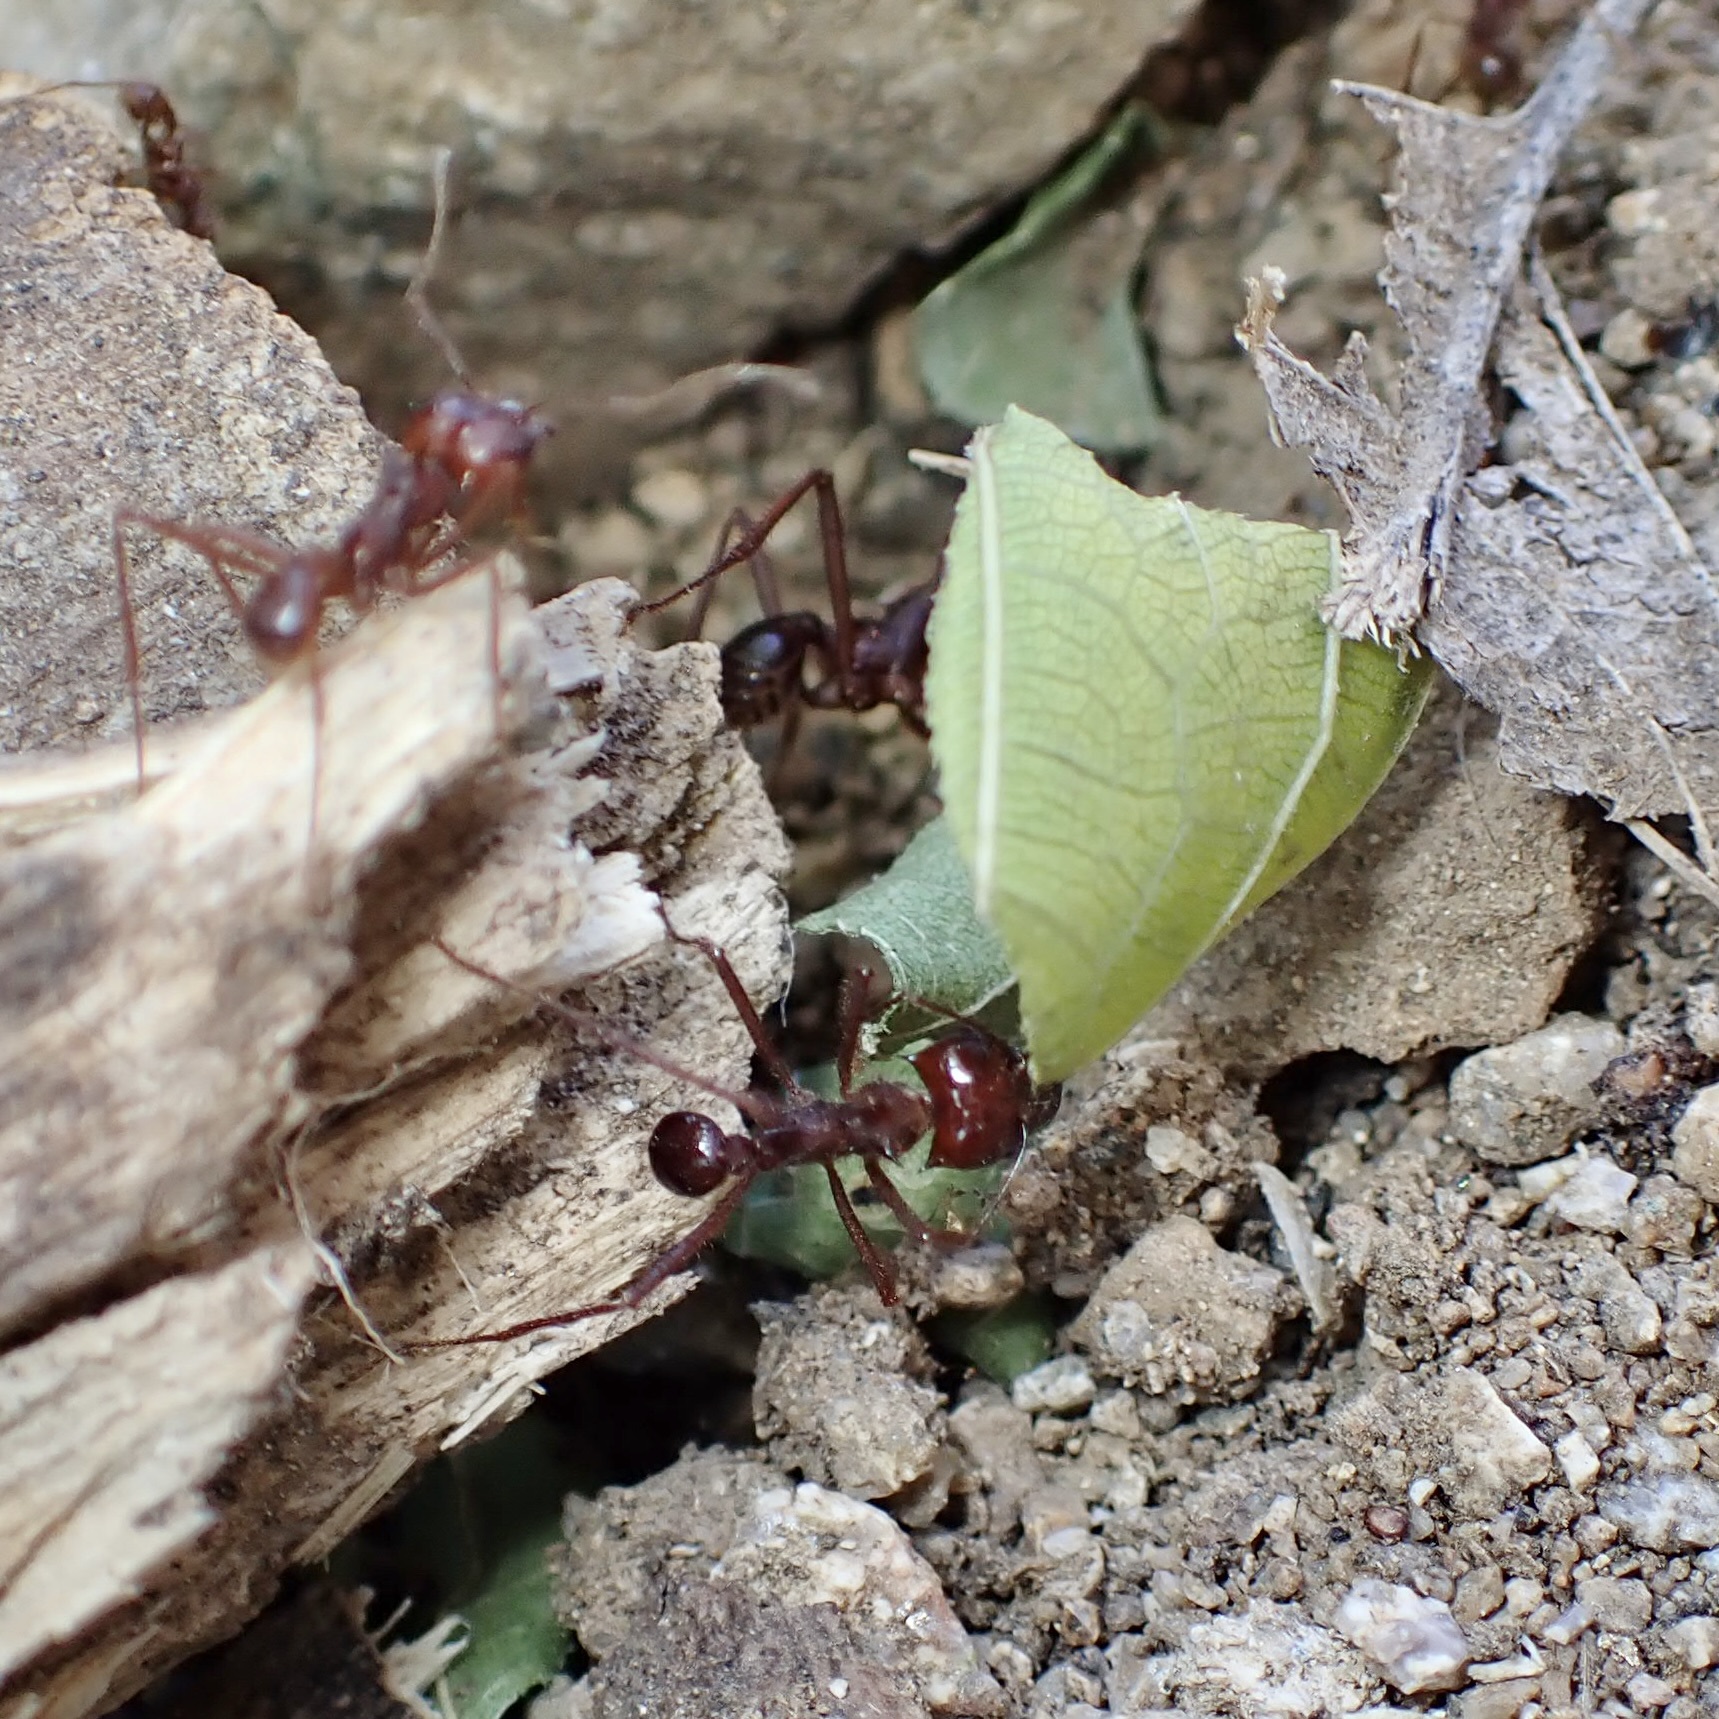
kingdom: Animalia
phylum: Arthropoda
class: Insecta
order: Hymenoptera
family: Formicidae
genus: Atta
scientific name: Atta mexicana
